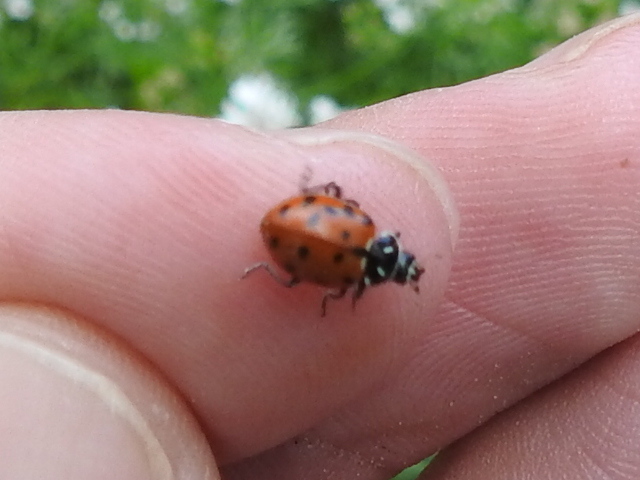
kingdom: Animalia
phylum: Arthropoda
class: Insecta
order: Coleoptera
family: Coccinellidae
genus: Hippodamia
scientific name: Hippodamia convergens
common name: Convergent lady beetle
